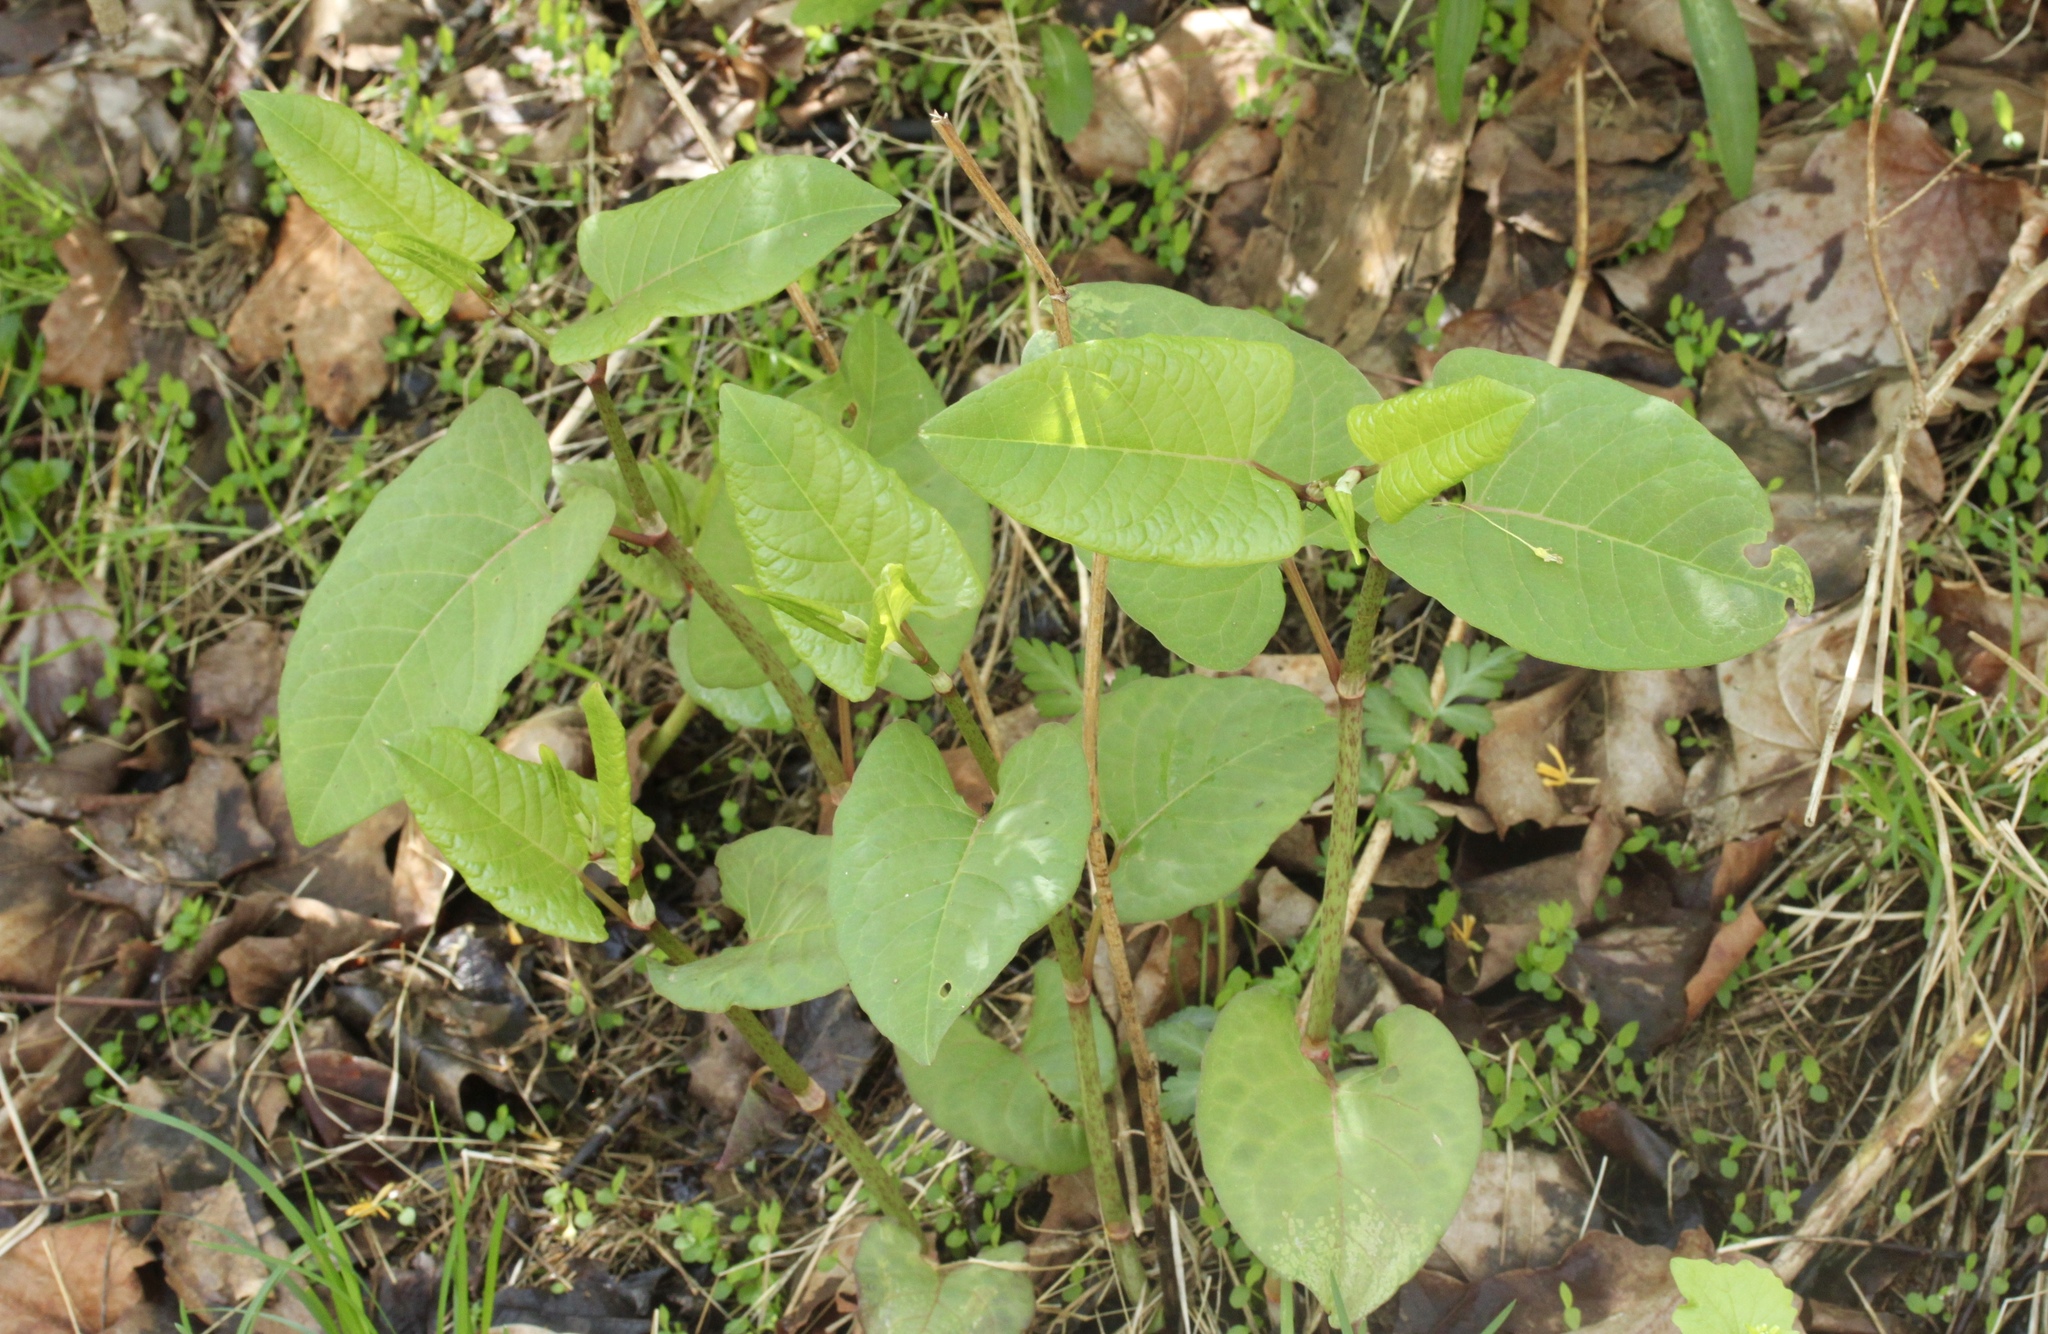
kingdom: Plantae
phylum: Tracheophyta
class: Magnoliopsida
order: Caryophyllales
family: Polygonaceae
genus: Reynoutria
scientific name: Reynoutria japonica
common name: Japanese knotweed
